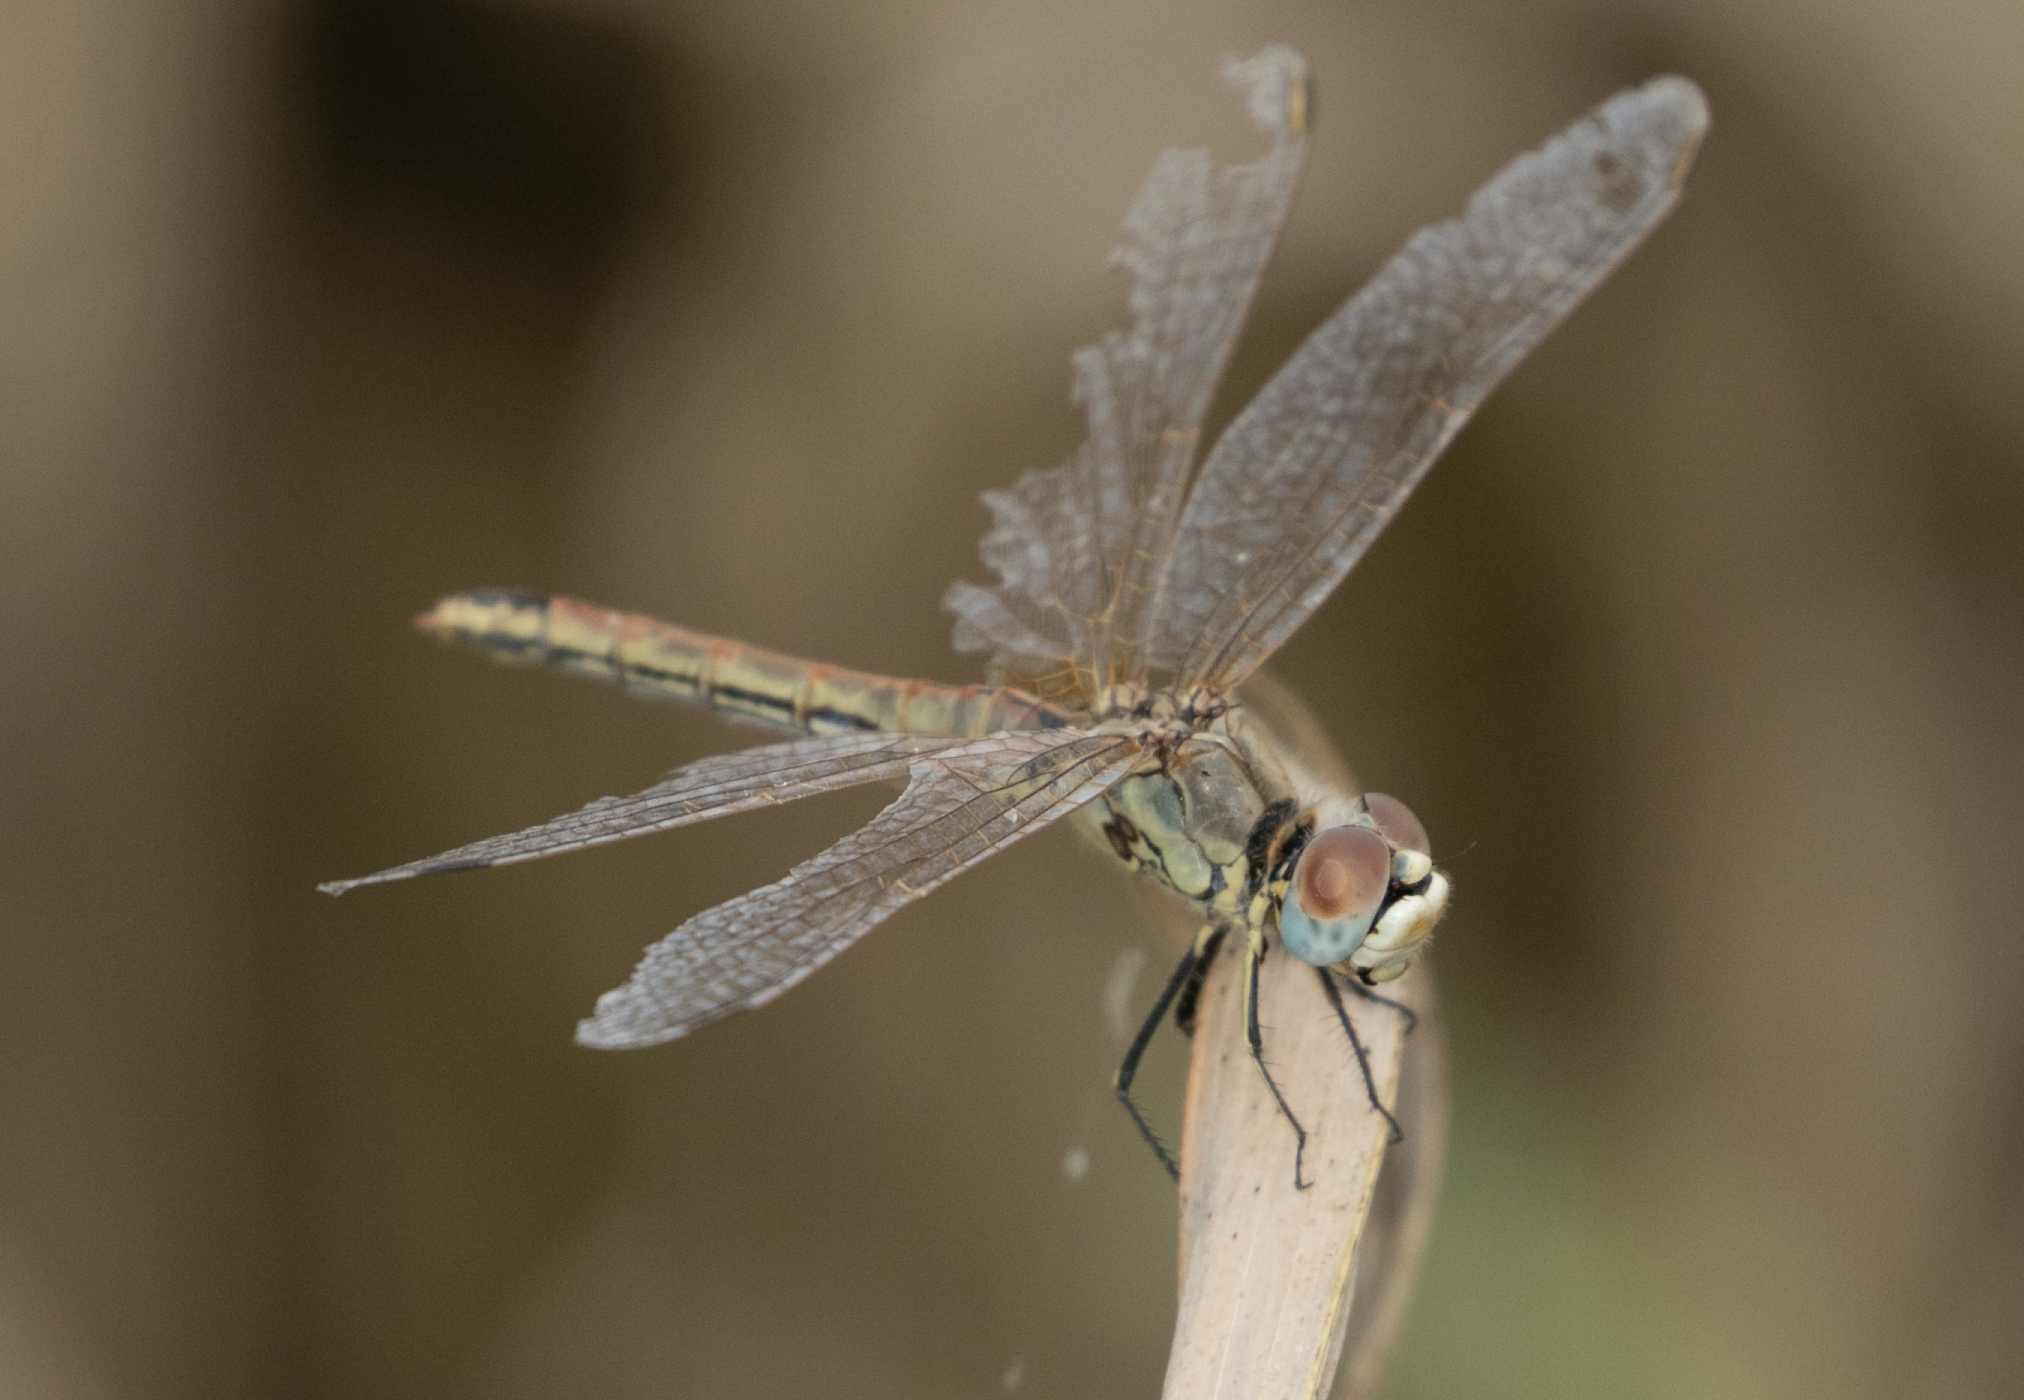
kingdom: Animalia
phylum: Arthropoda
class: Insecta
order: Odonata
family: Libellulidae
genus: Sympetrum
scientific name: Sympetrum fonscolombii
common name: Red-veined darter
